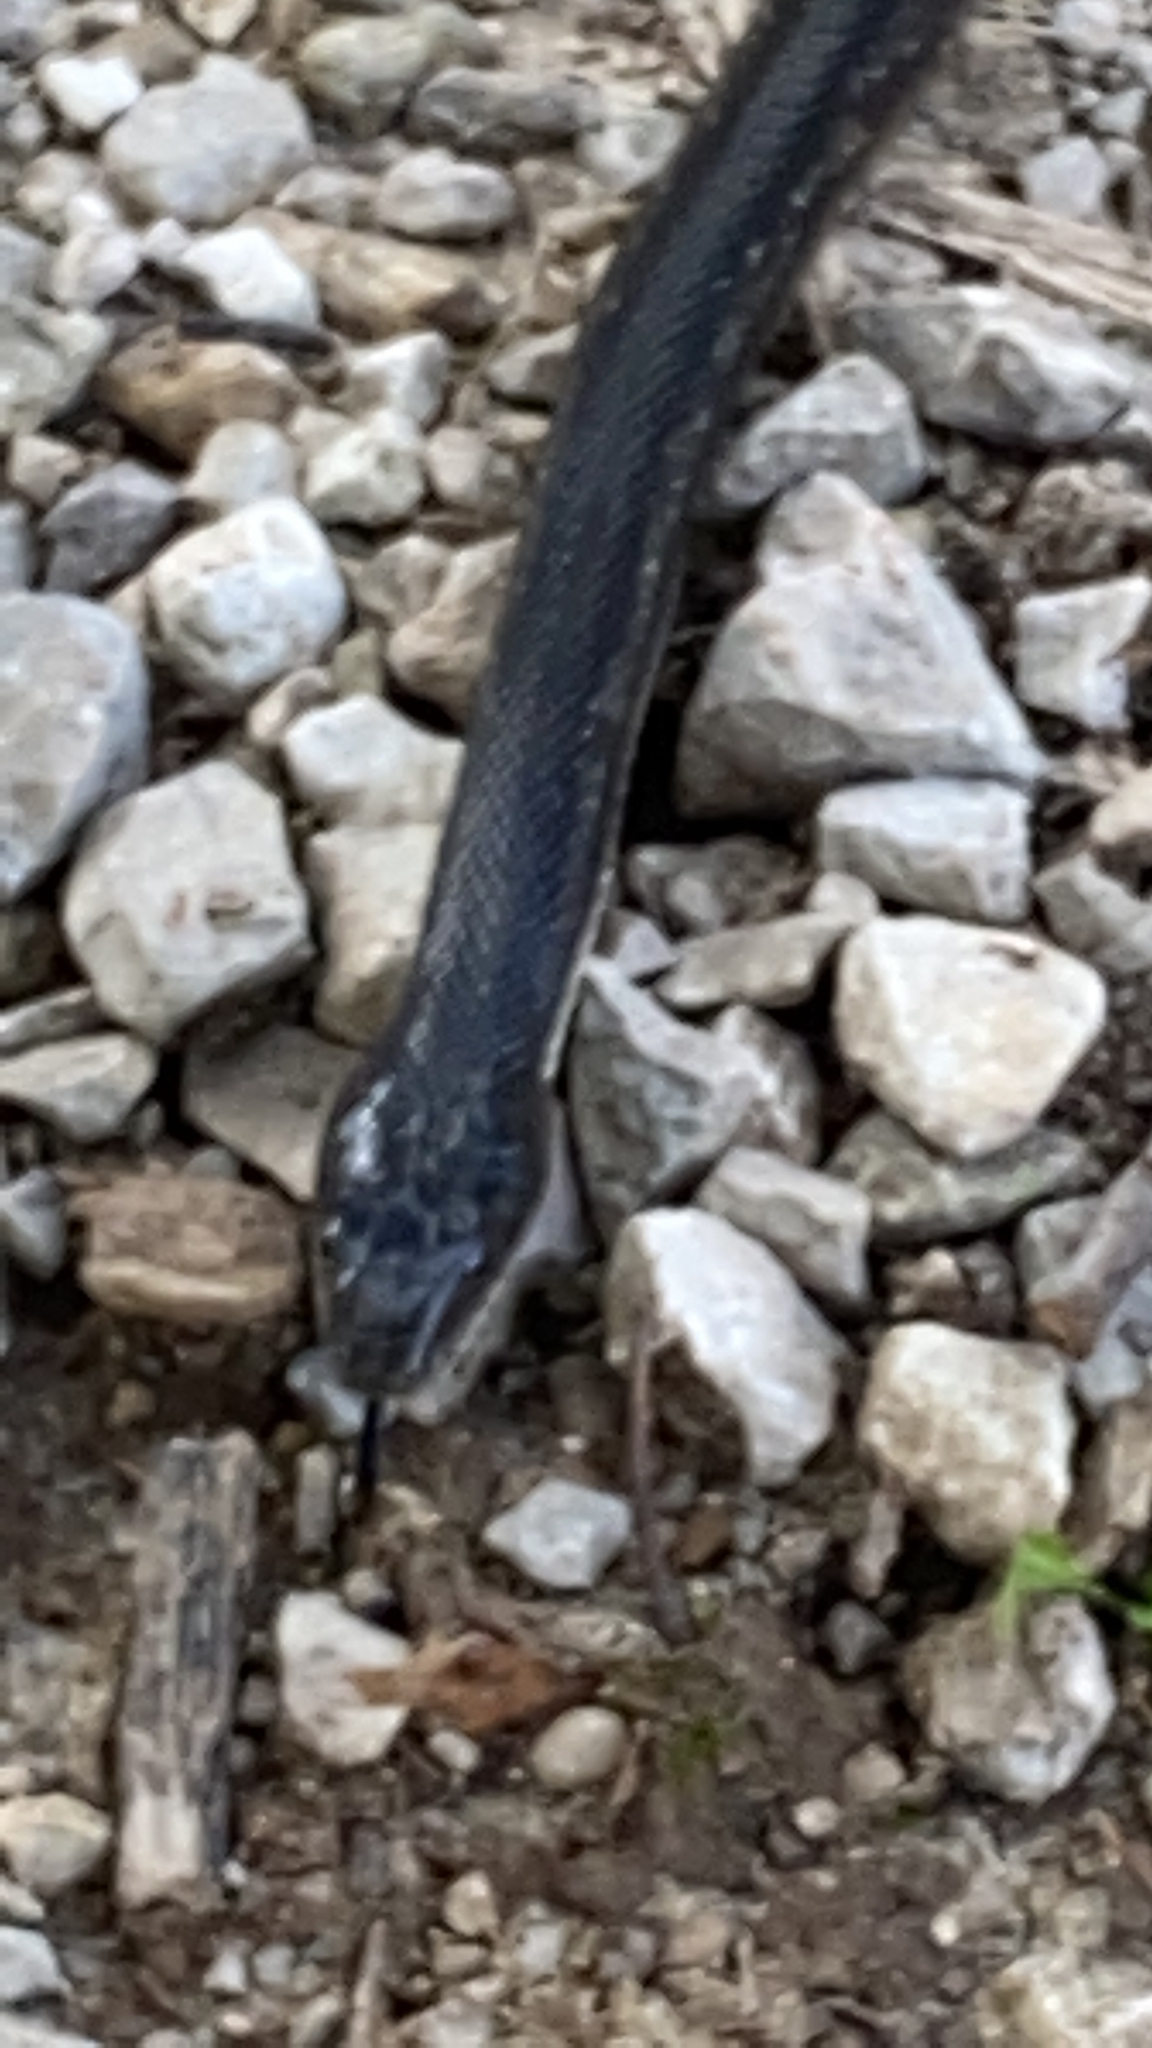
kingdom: Animalia
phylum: Chordata
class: Squamata
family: Colubridae
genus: Pantherophis
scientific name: Pantherophis obsoletus
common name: Black rat snake
